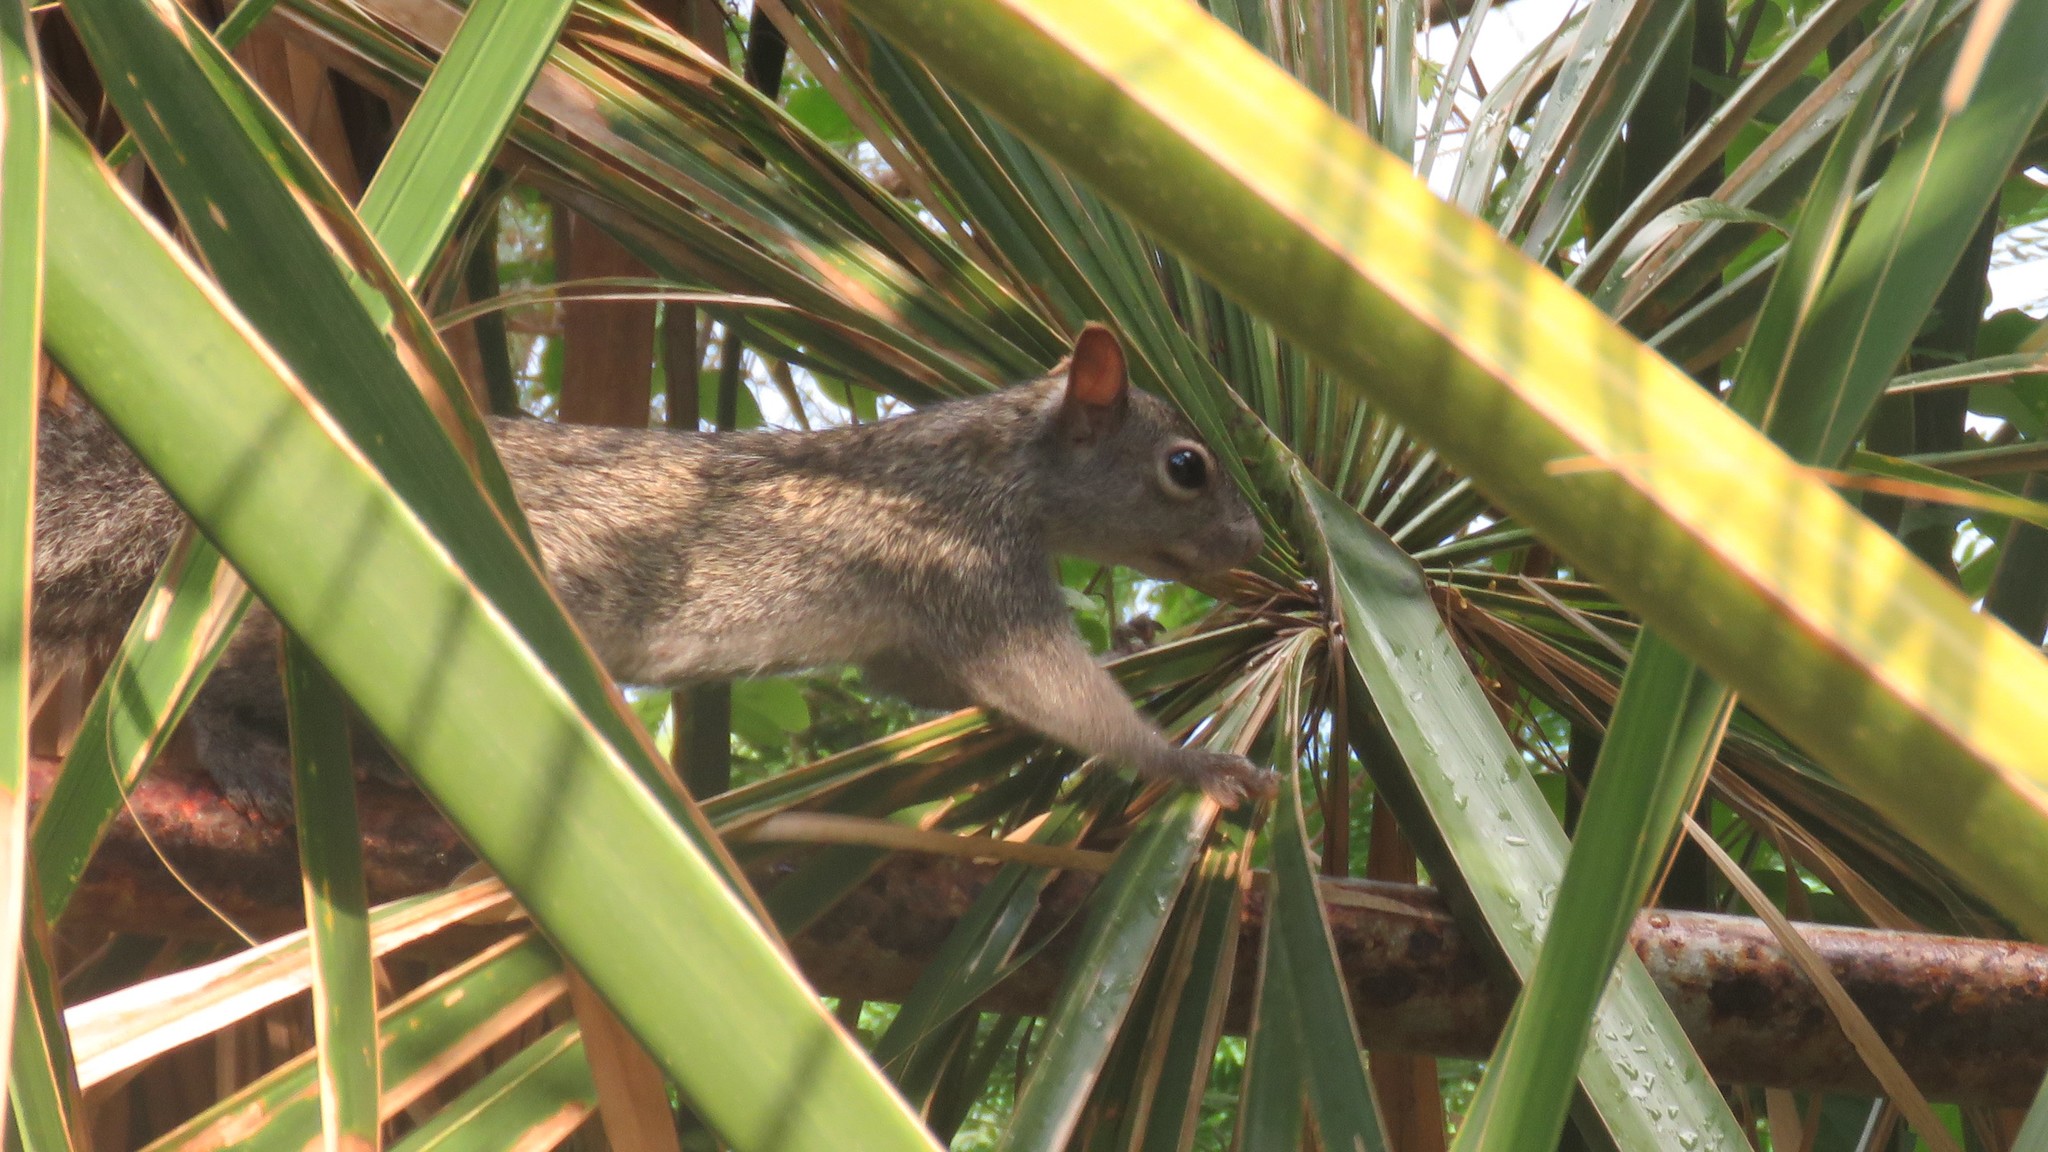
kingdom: Animalia
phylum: Chordata
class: Mammalia
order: Rodentia
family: Sciuridae
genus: Sciurus
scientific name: Sciurus yucatanensis
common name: Yucatan squirrel
